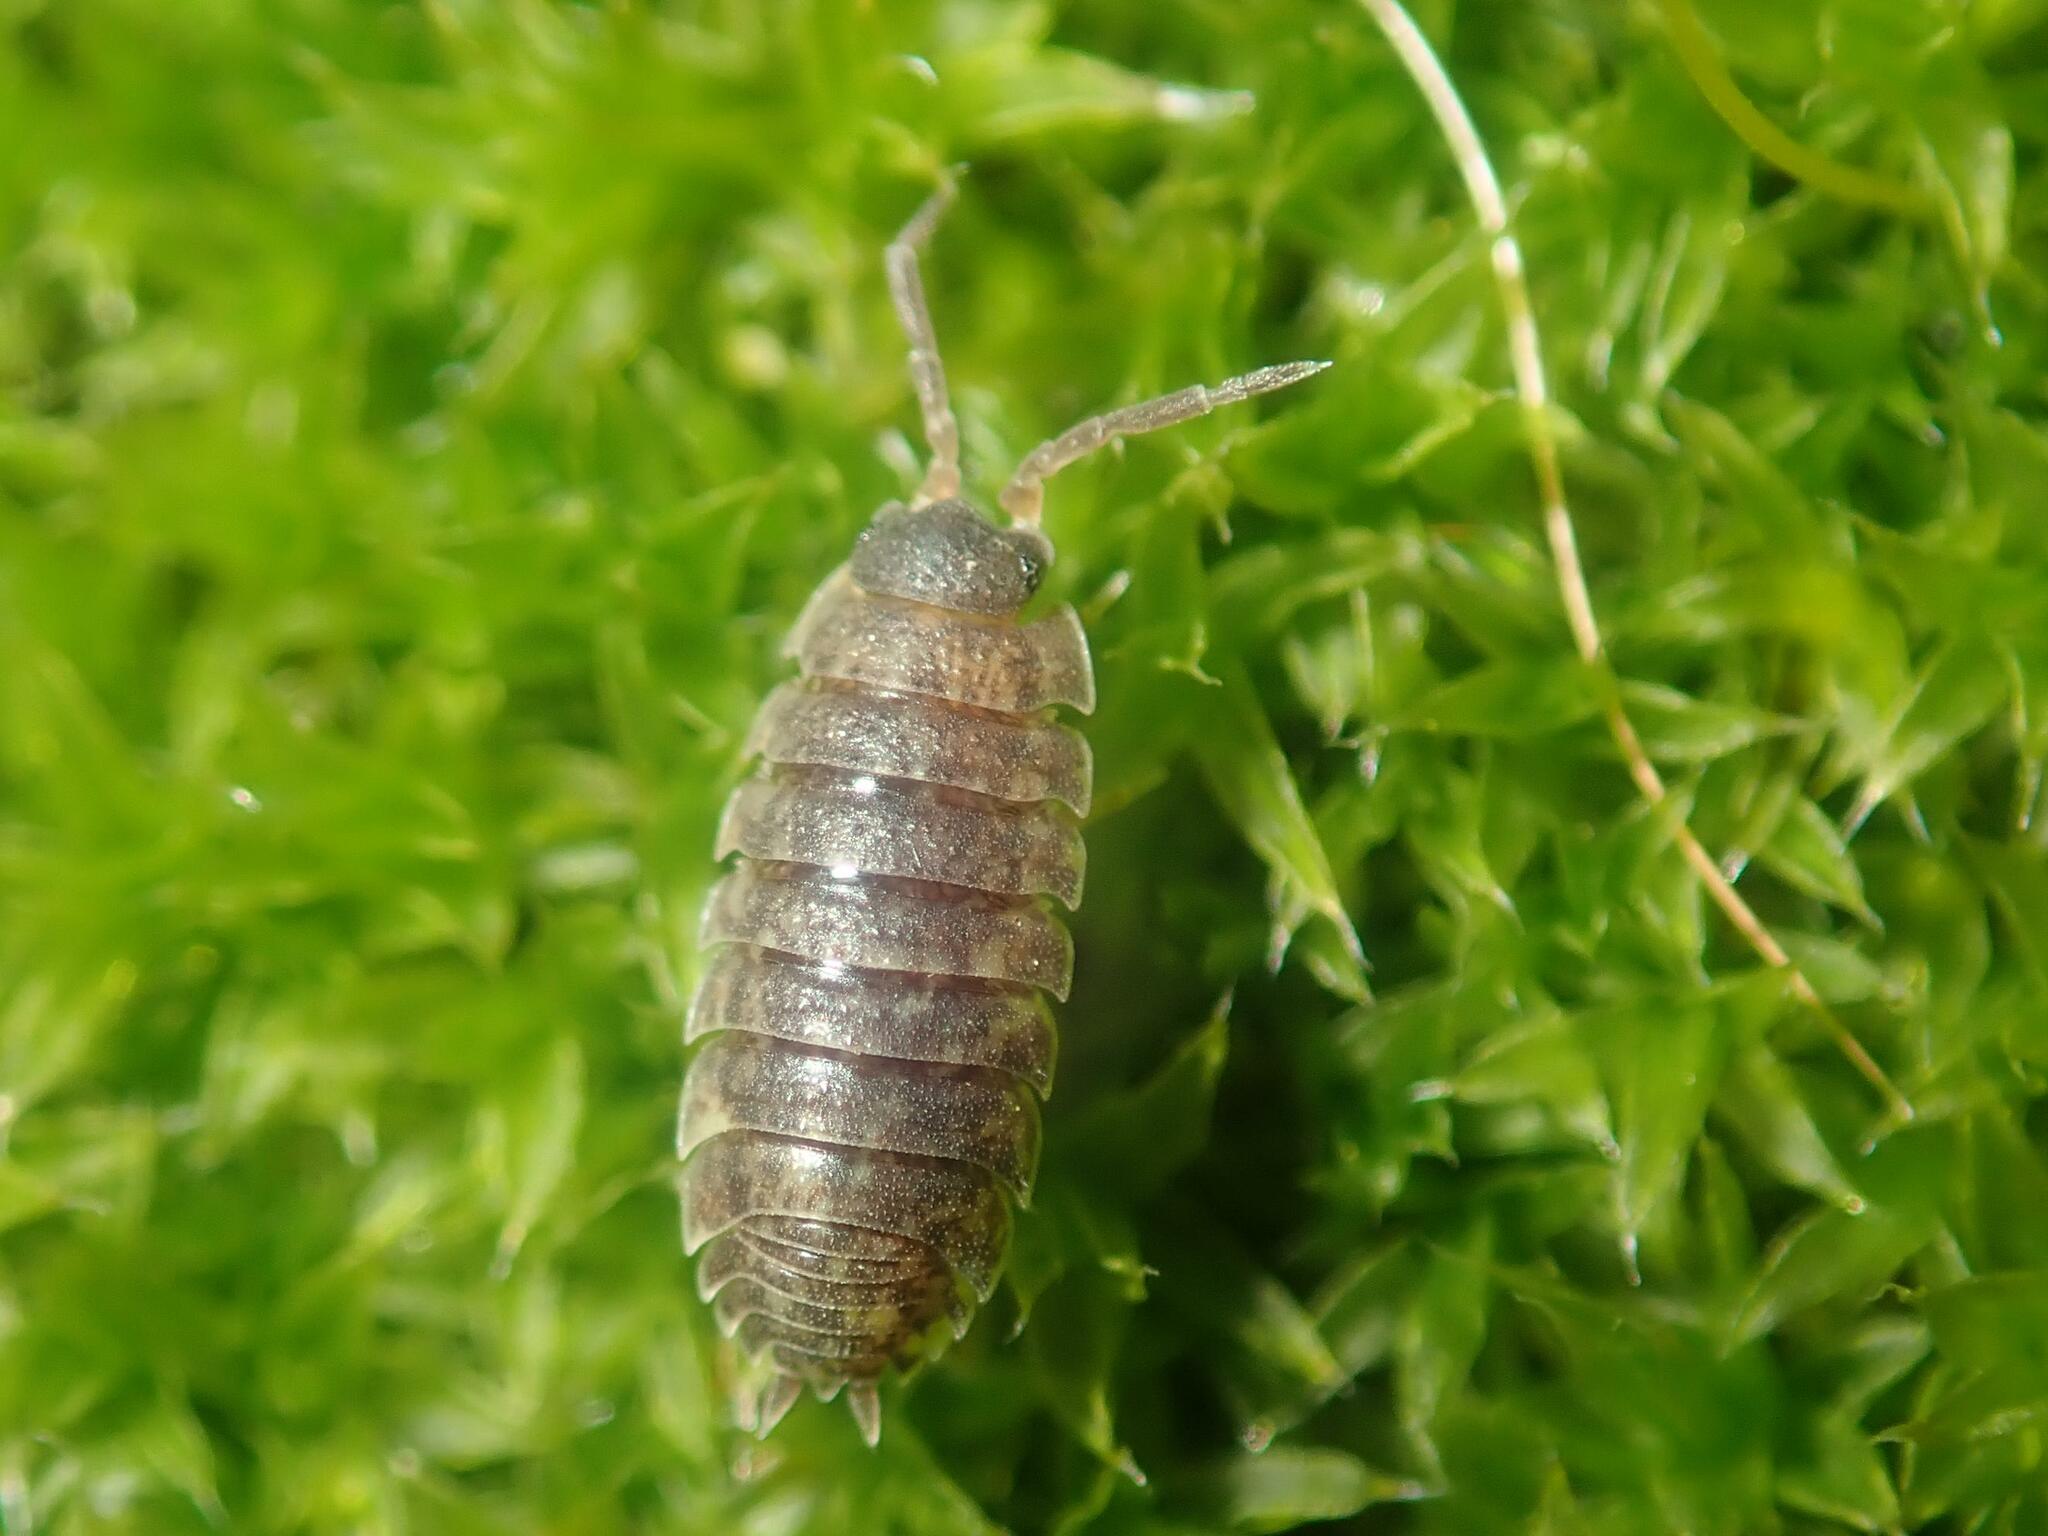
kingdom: Animalia
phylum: Arthropoda
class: Malacostraca
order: Isopoda
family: Porcellionidae
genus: Porcellio
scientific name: Porcellio scaber
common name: Common rough woodlouse
